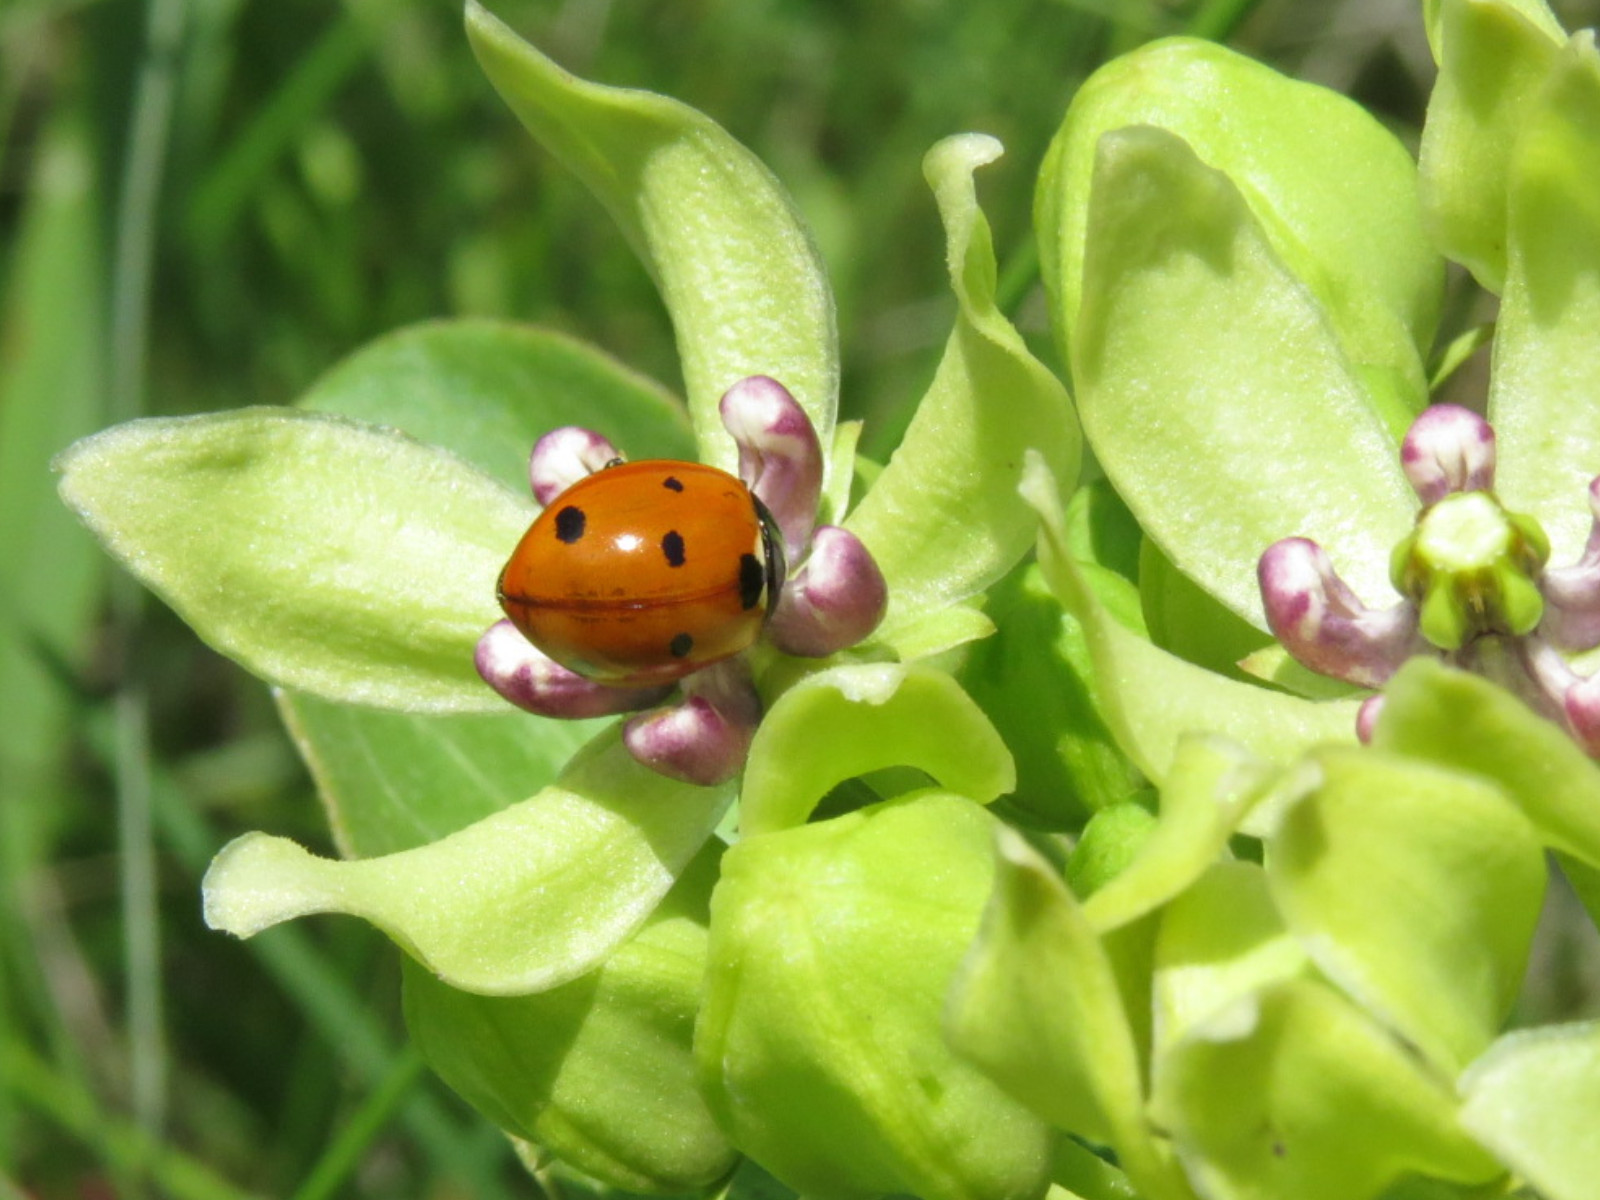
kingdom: Animalia
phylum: Arthropoda
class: Insecta
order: Coleoptera
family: Coccinellidae
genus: Coccinella
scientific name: Coccinella septempunctata
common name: Sevenspotted lady beetle
